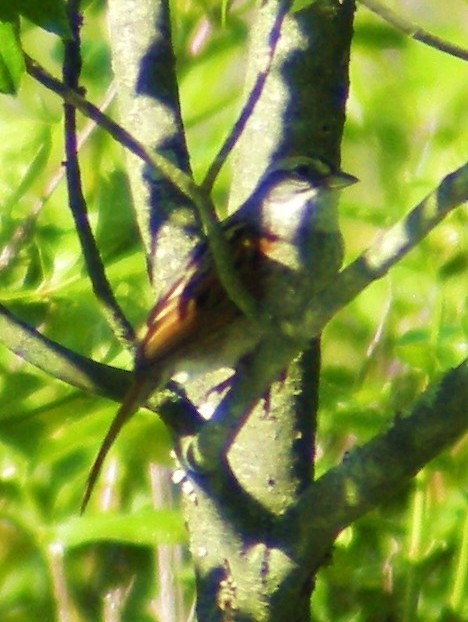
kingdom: Animalia
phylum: Chordata
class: Aves
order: Passeriformes
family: Passerellidae
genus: Melospiza
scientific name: Melospiza georgiana
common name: Swamp sparrow
